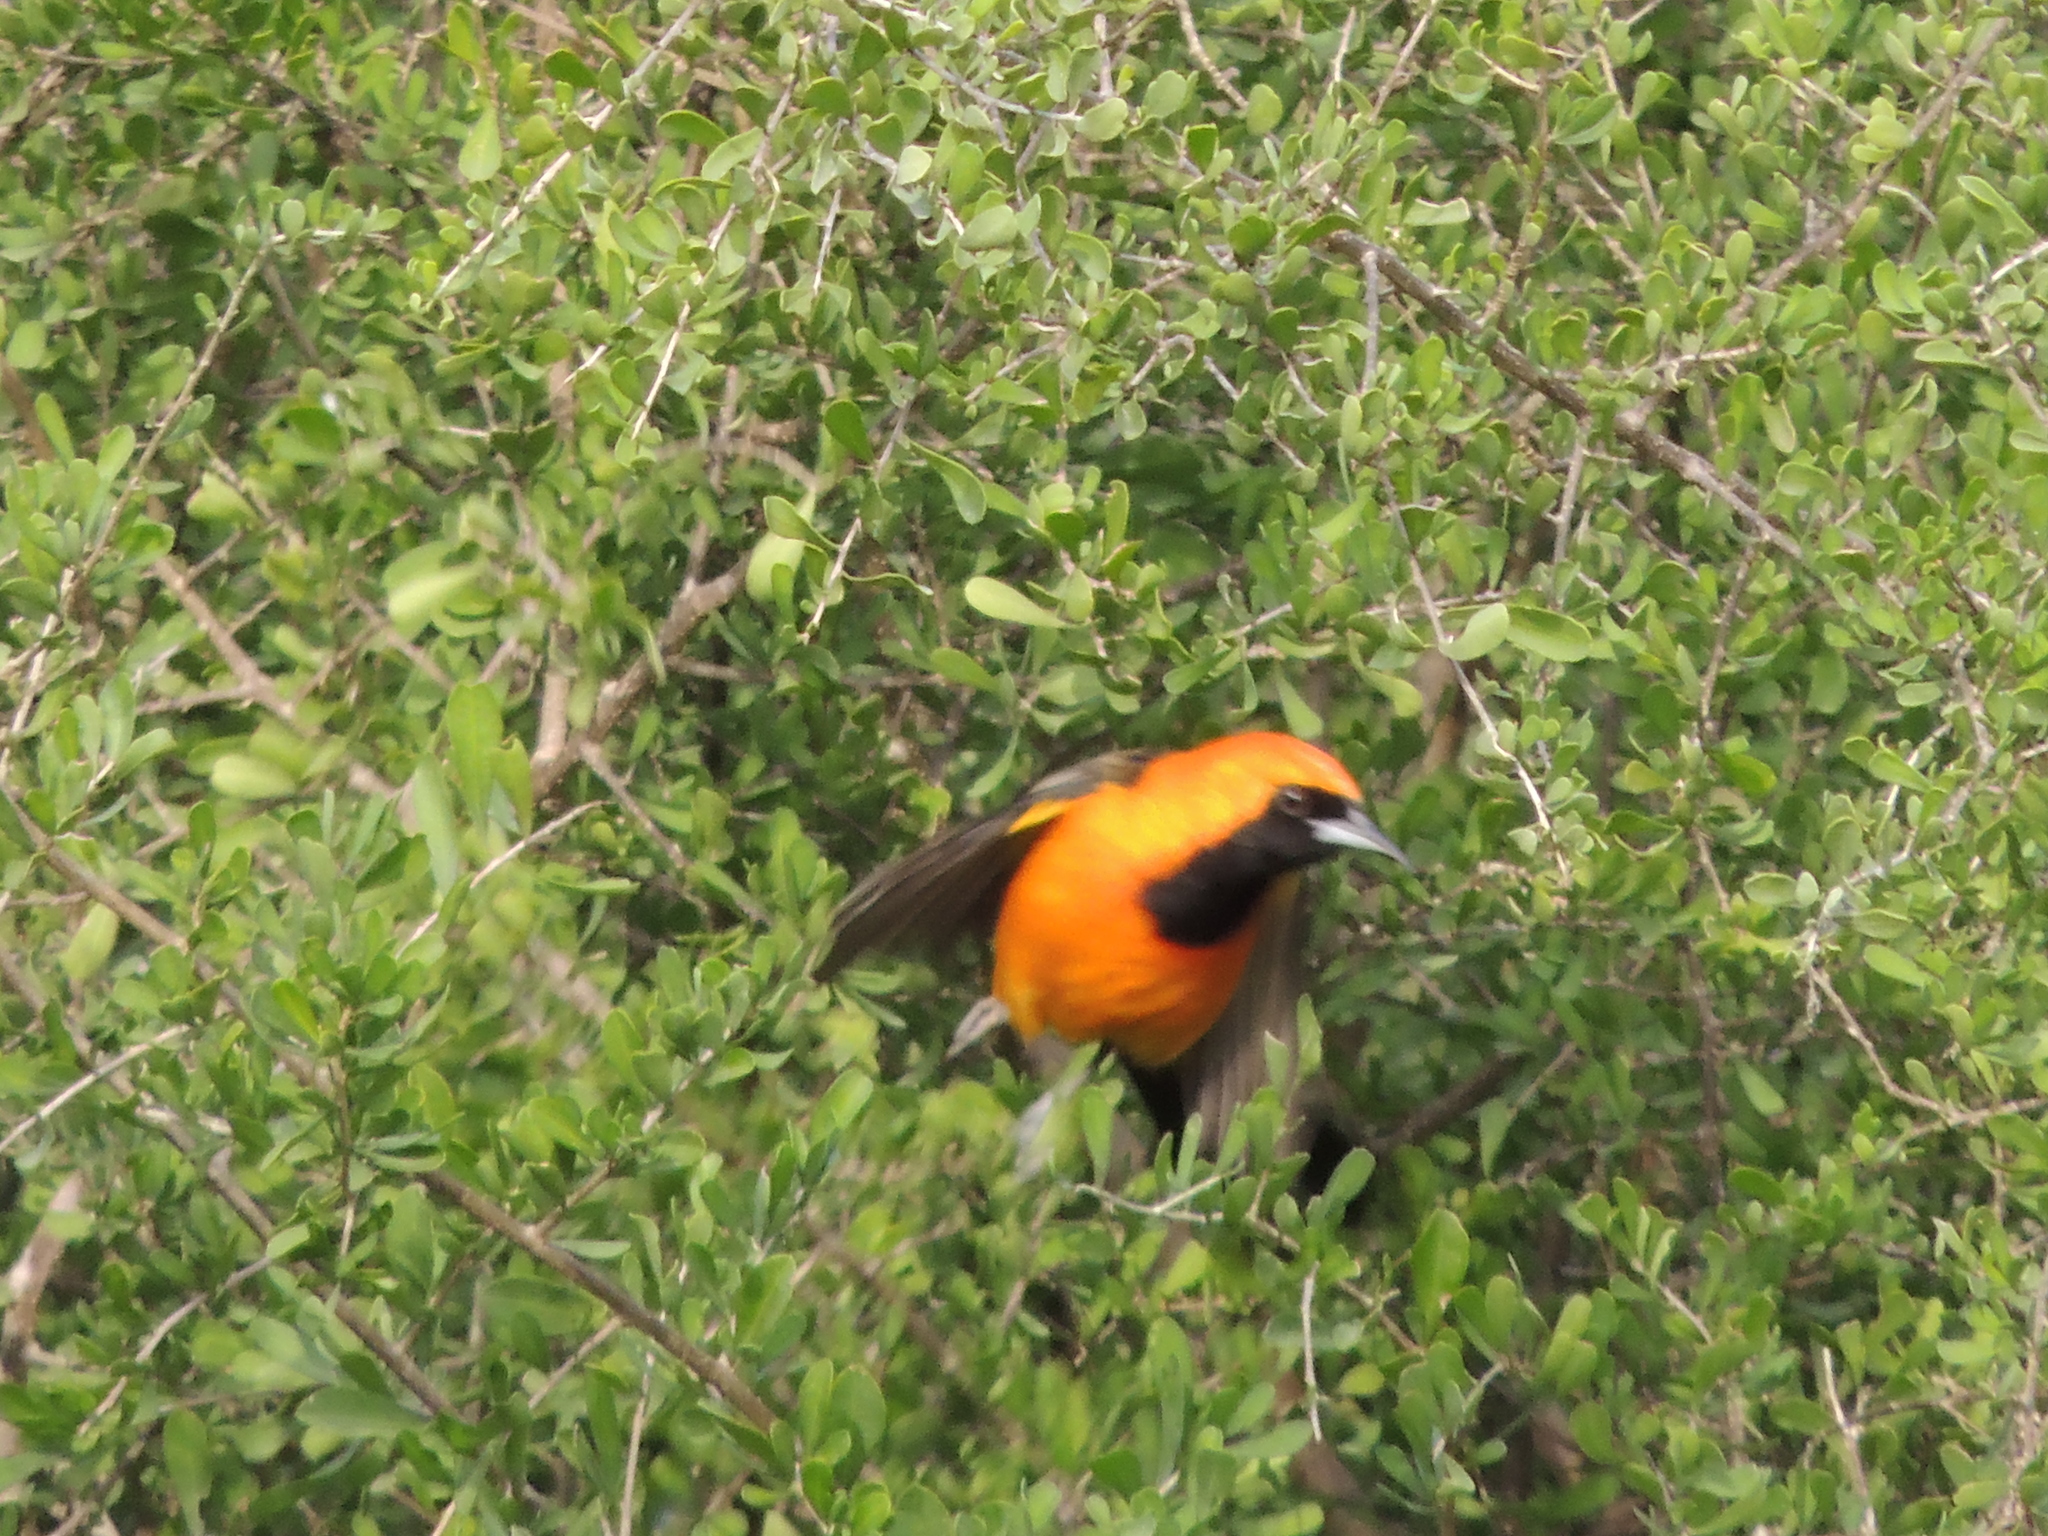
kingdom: Animalia
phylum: Chordata
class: Aves
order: Passeriformes
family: Icteridae
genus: Icterus
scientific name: Icterus cucullatus
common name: Hooded oriole
